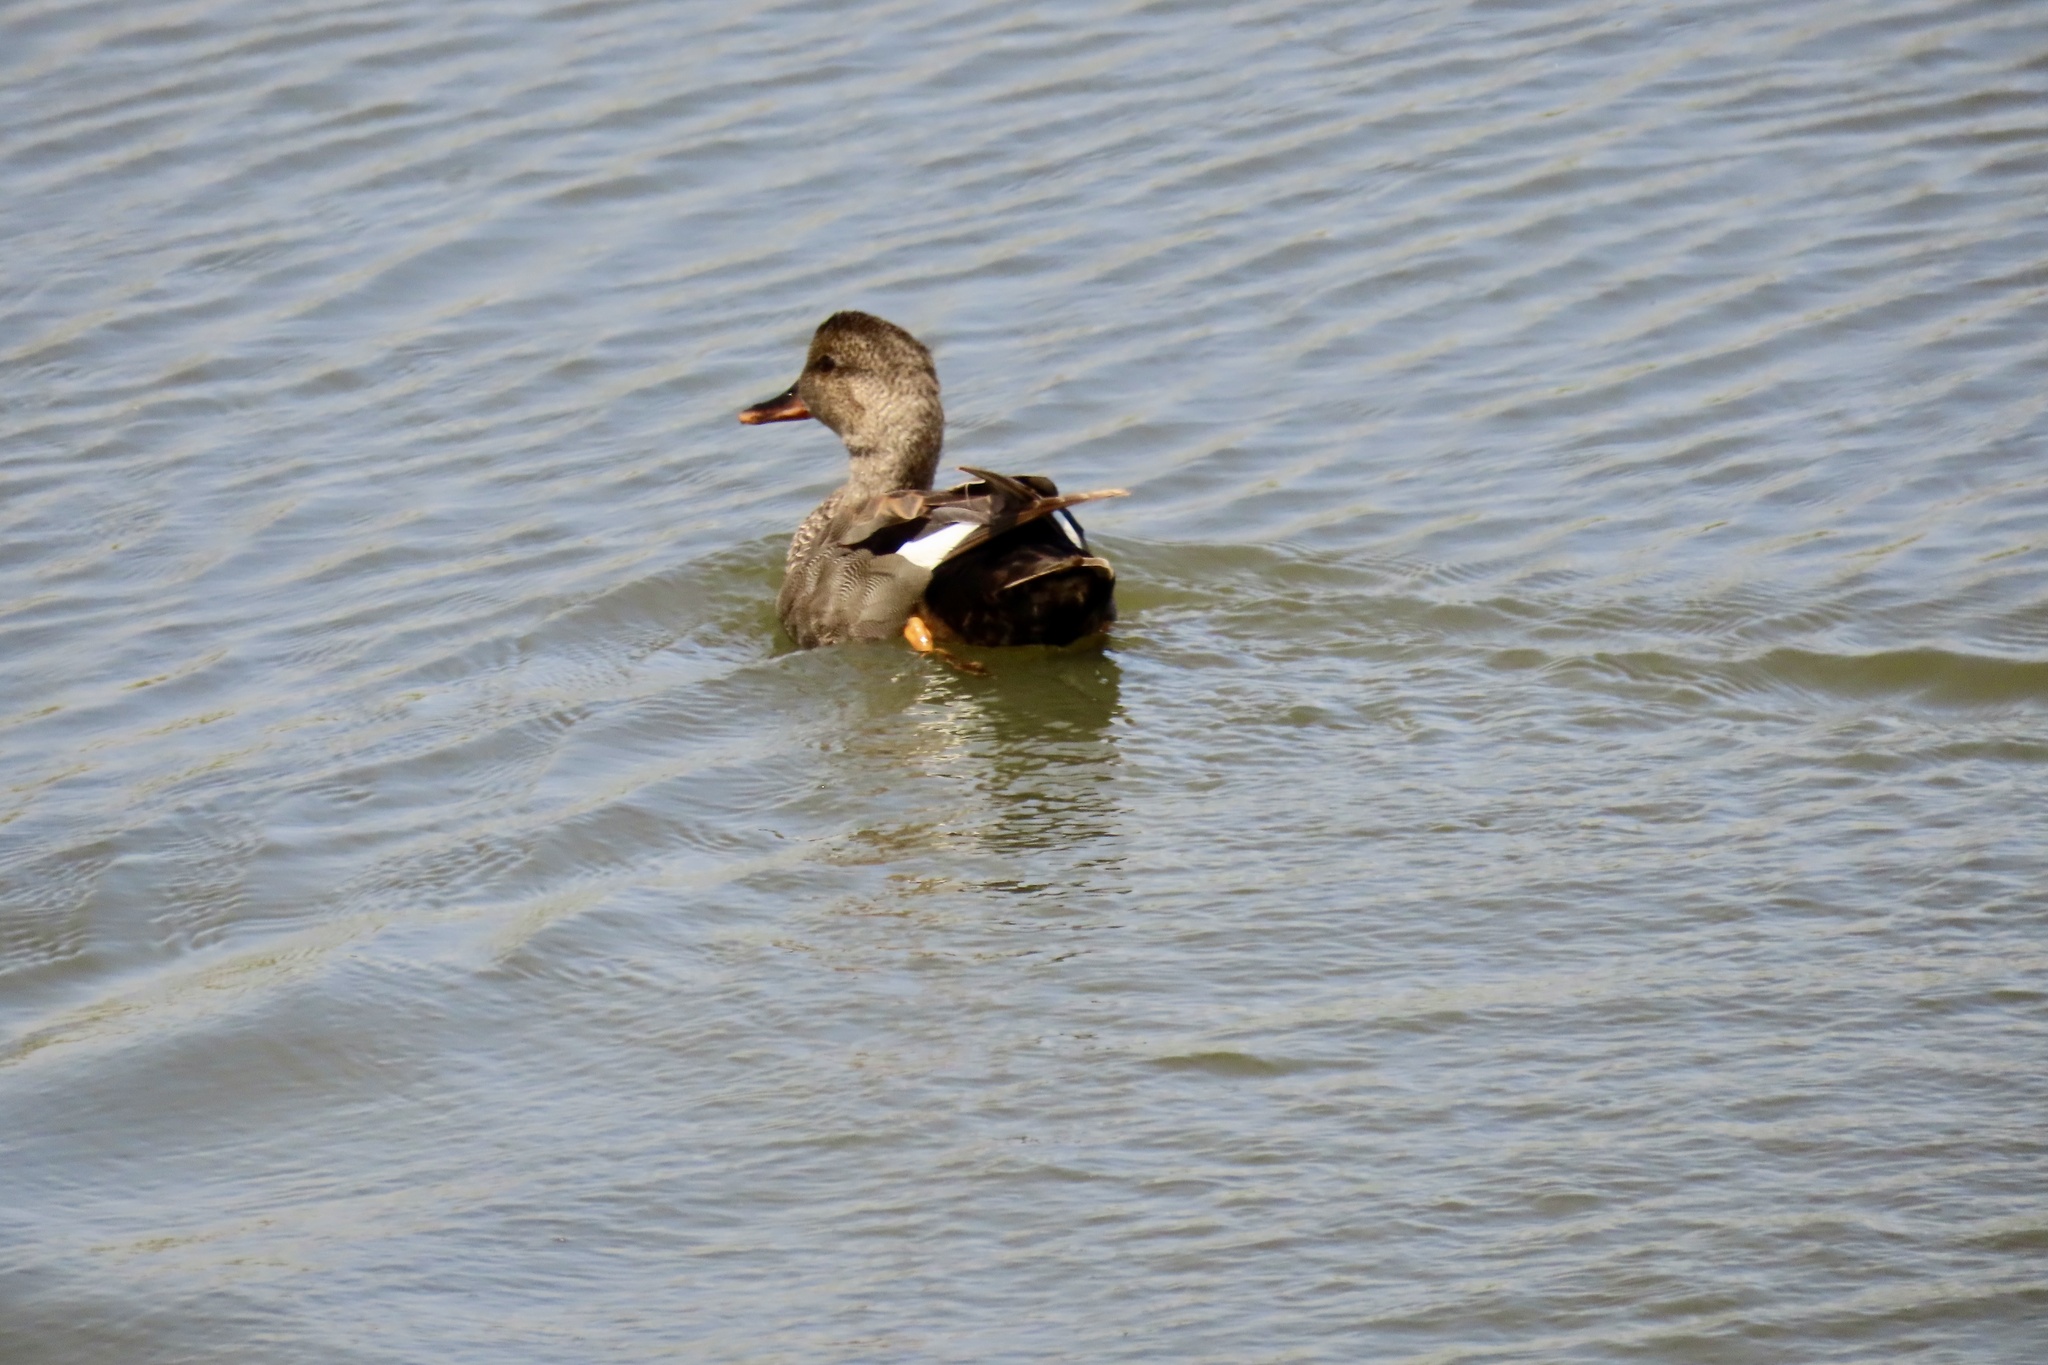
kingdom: Animalia
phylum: Chordata
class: Aves
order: Anseriformes
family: Anatidae
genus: Mareca
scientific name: Mareca strepera
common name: Gadwall
